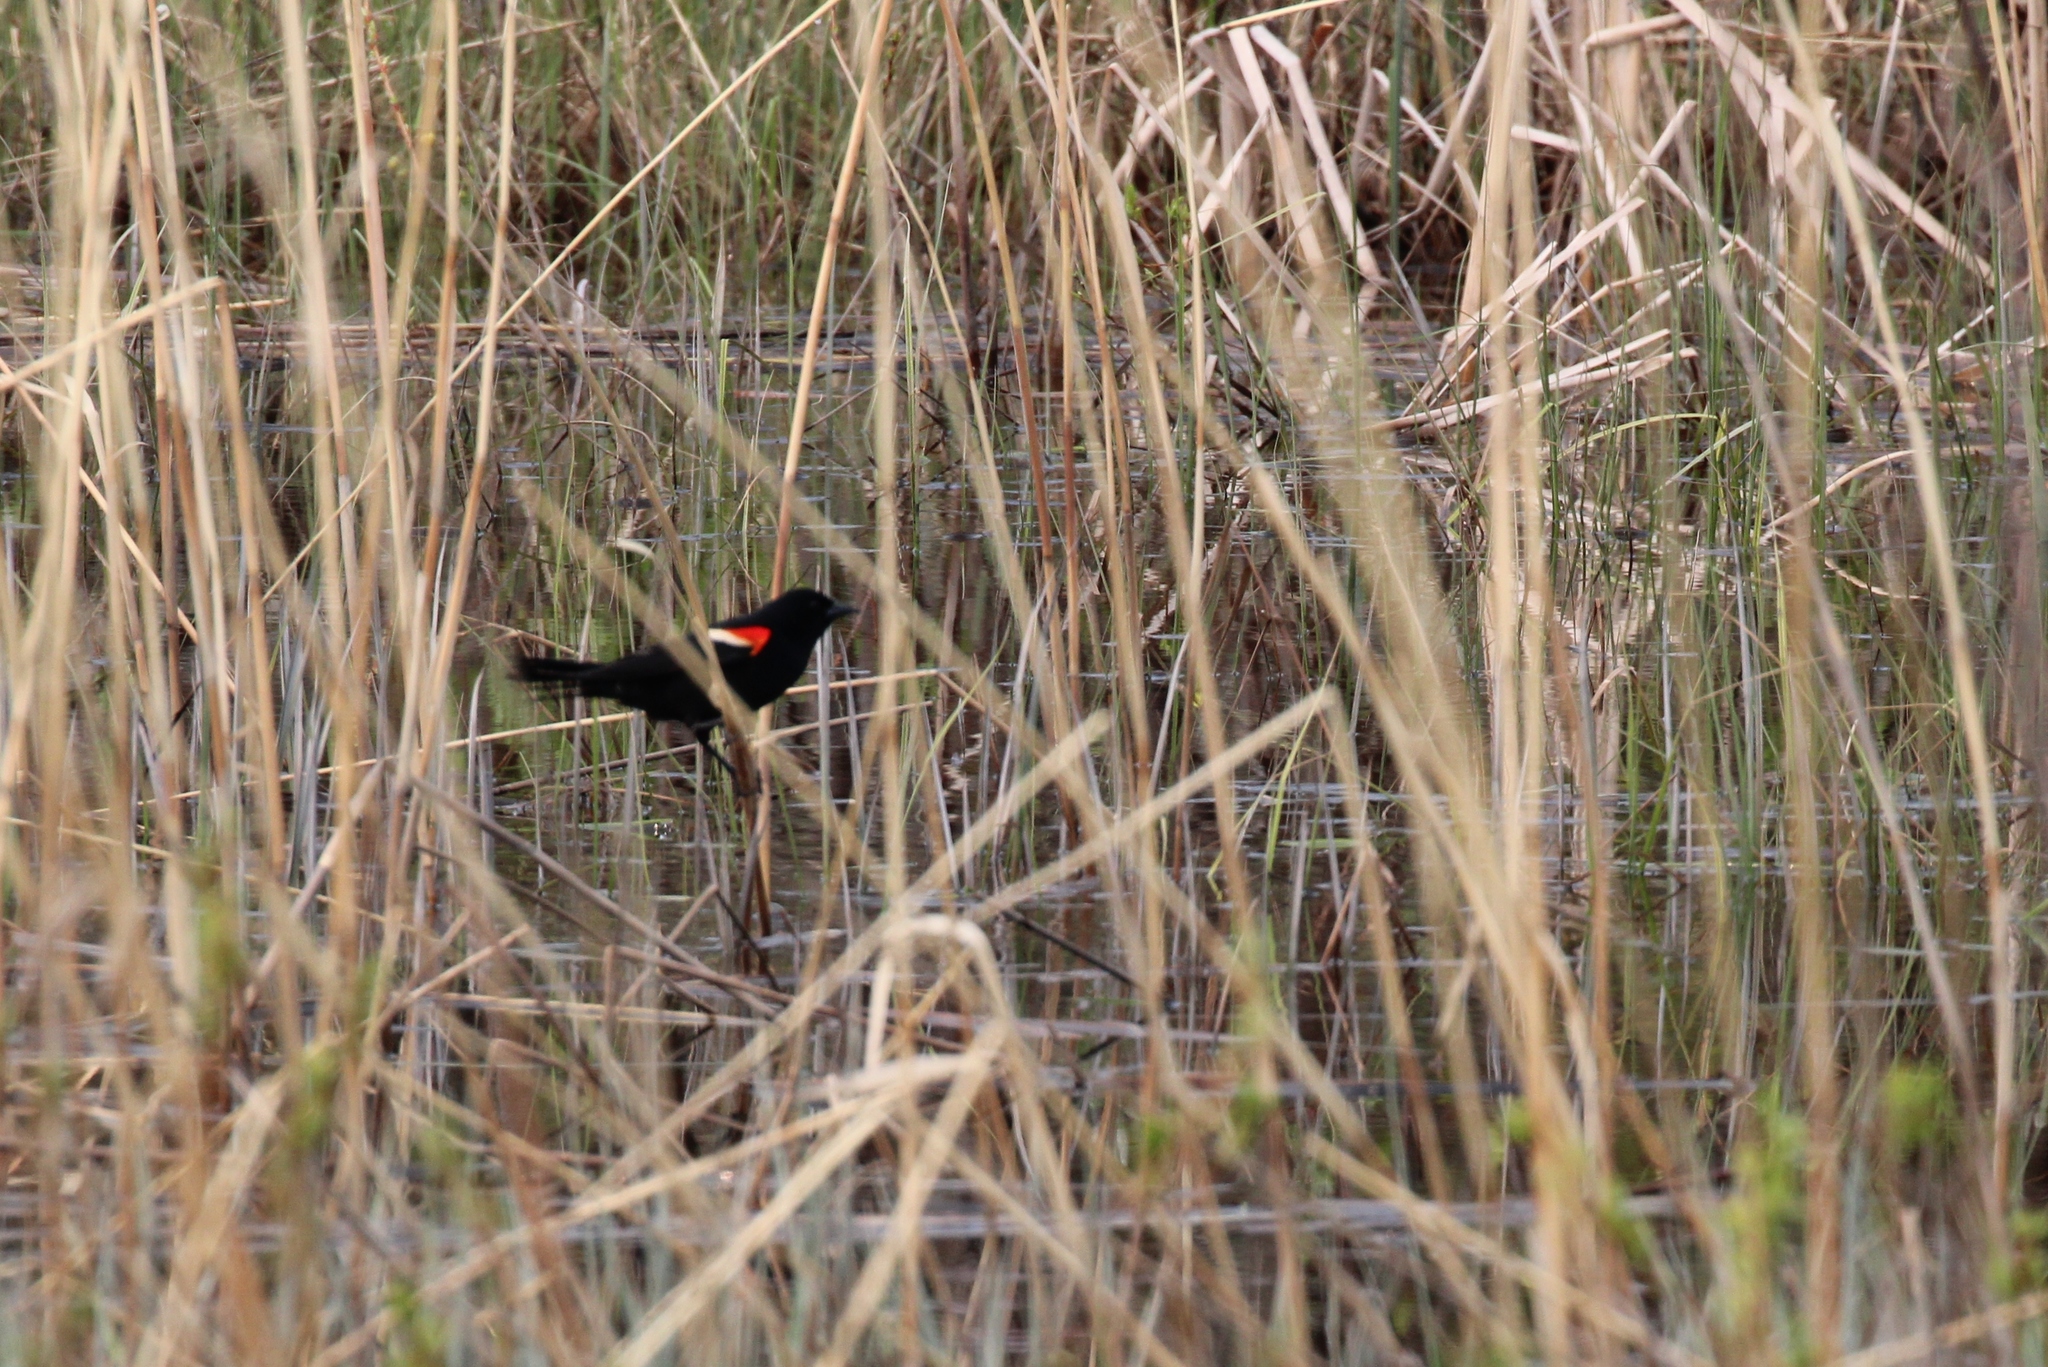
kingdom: Animalia
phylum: Chordata
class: Aves
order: Passeriformes
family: Icteridae
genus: Agelaius
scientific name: Agelaius phoeniceus
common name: Red-winged blackbird
